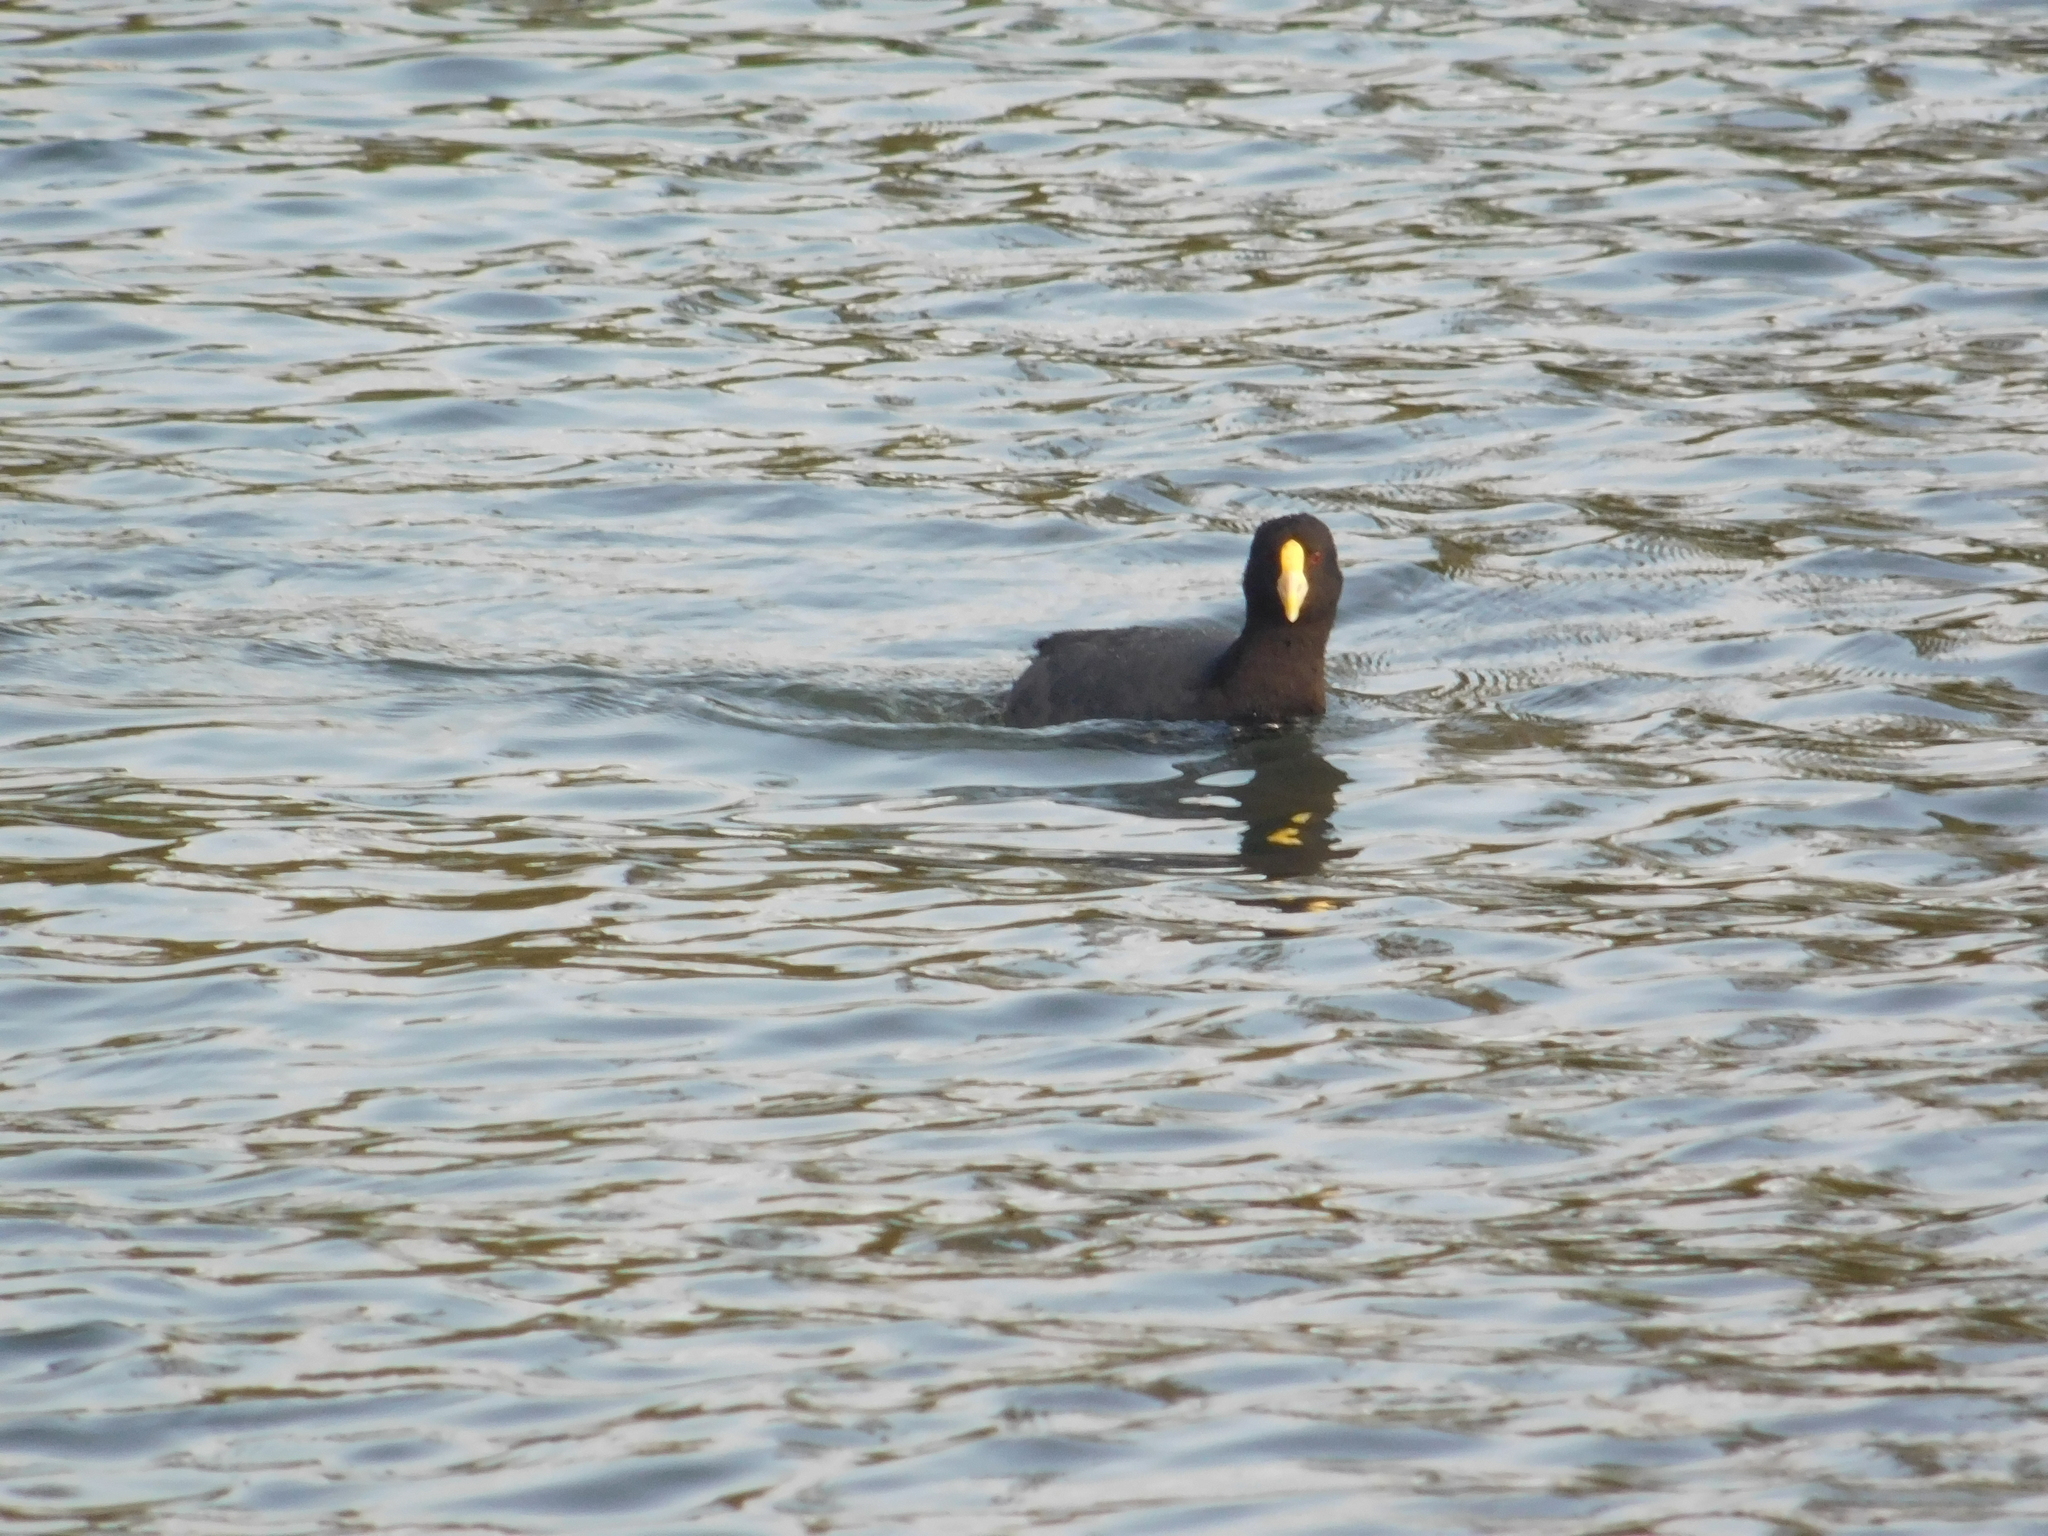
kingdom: Animalia
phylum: Chordata
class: Aves
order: Gruiformes
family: Rallidae
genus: Fulica
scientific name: Fulica leucoptera
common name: White-winged coot
